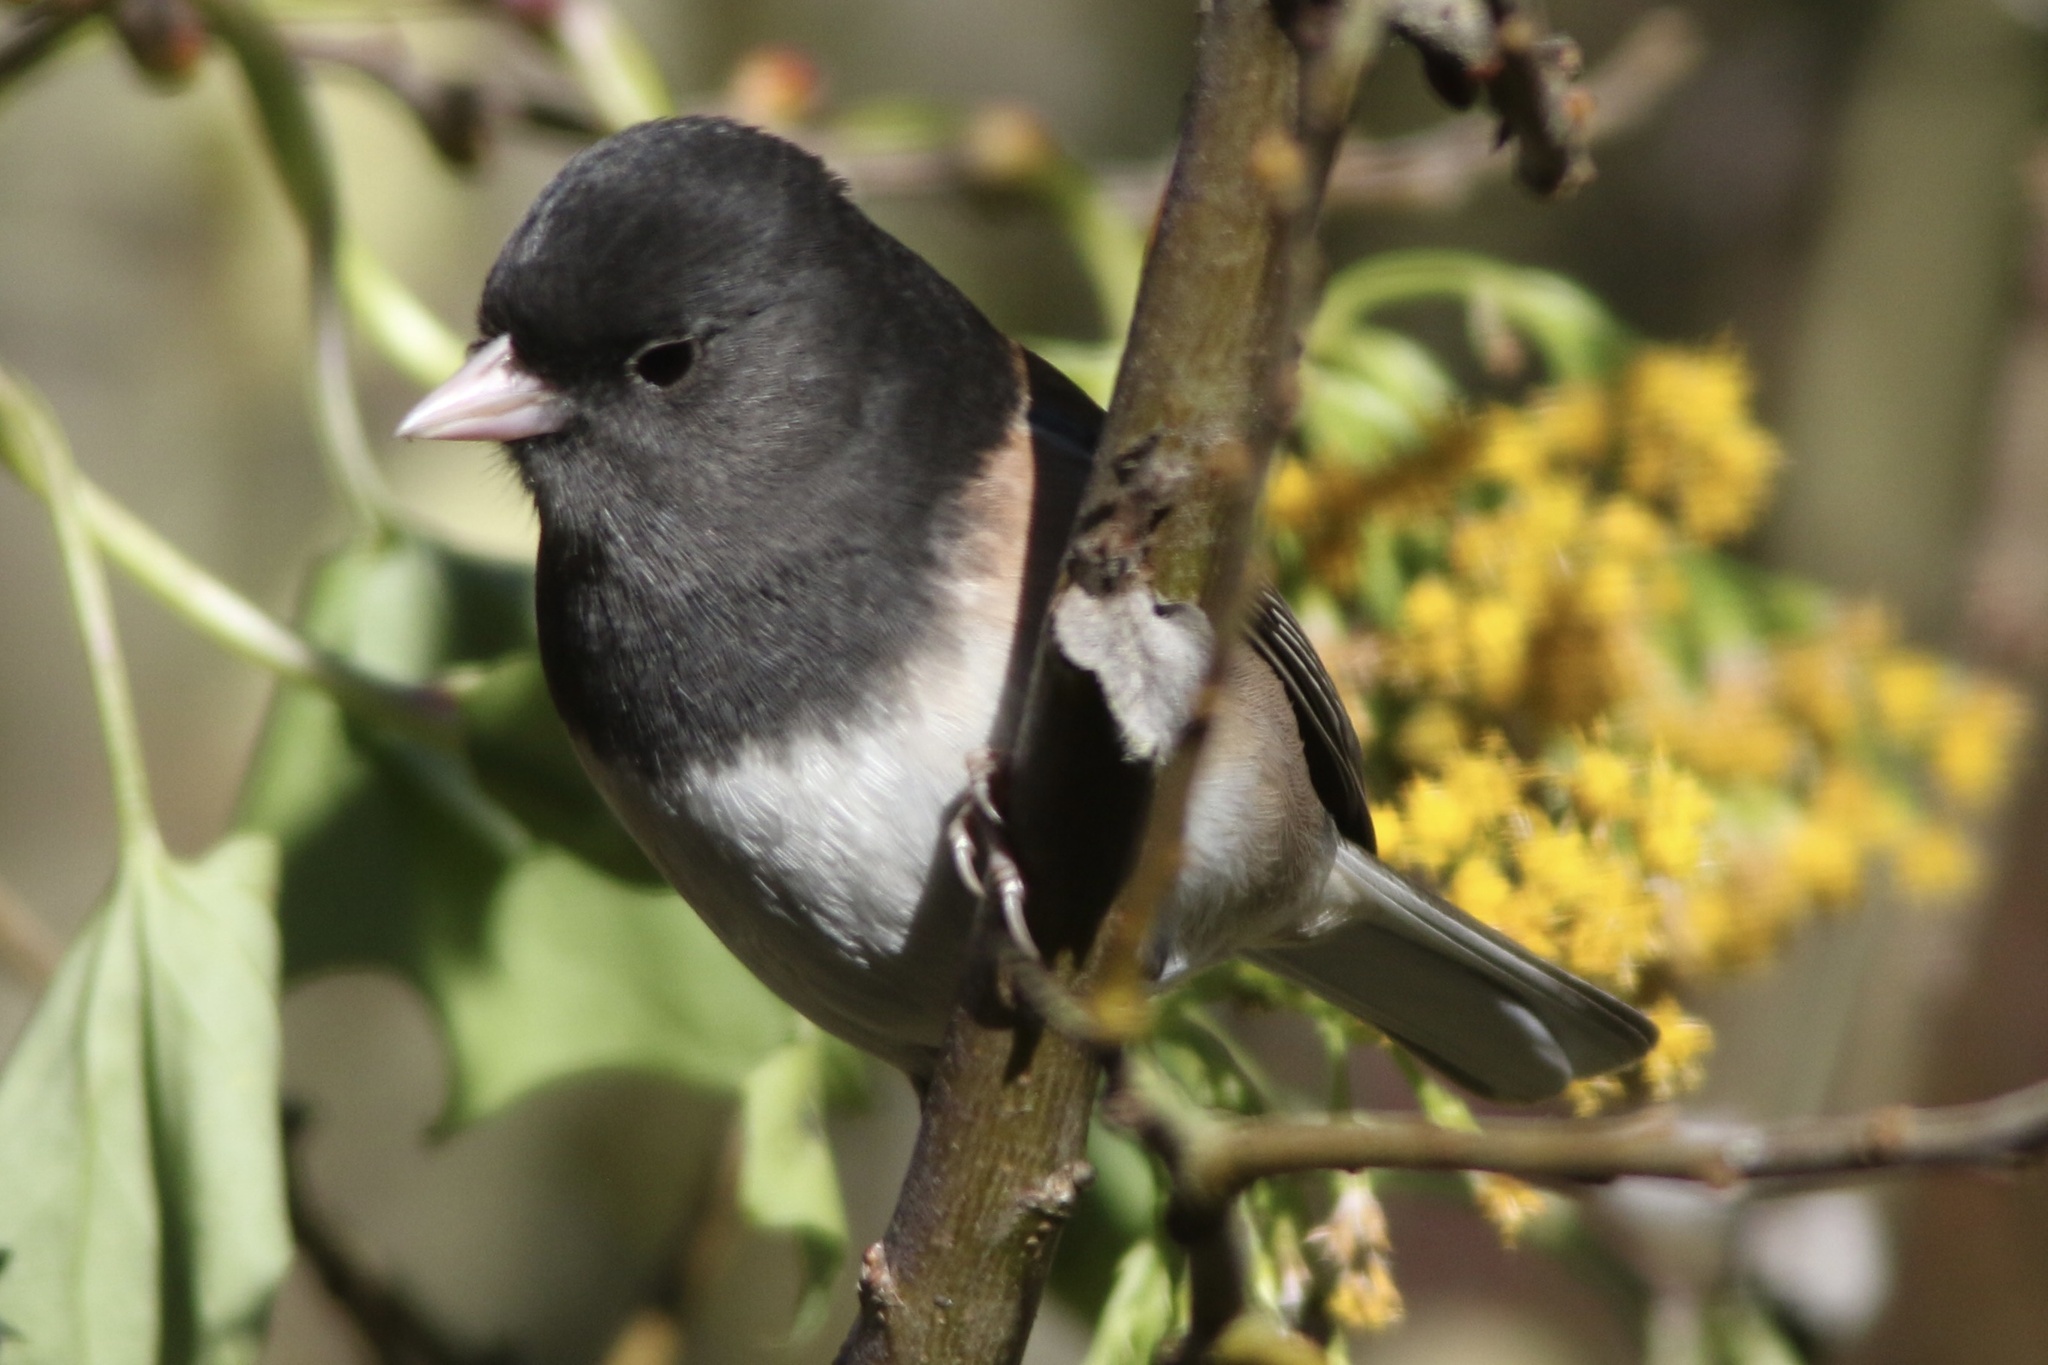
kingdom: Animalia
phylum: Chordata
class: Aves
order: Passeriformes
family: Passerellidae
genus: Junco
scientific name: Junco hyemalis
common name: Dark-eyed junco
